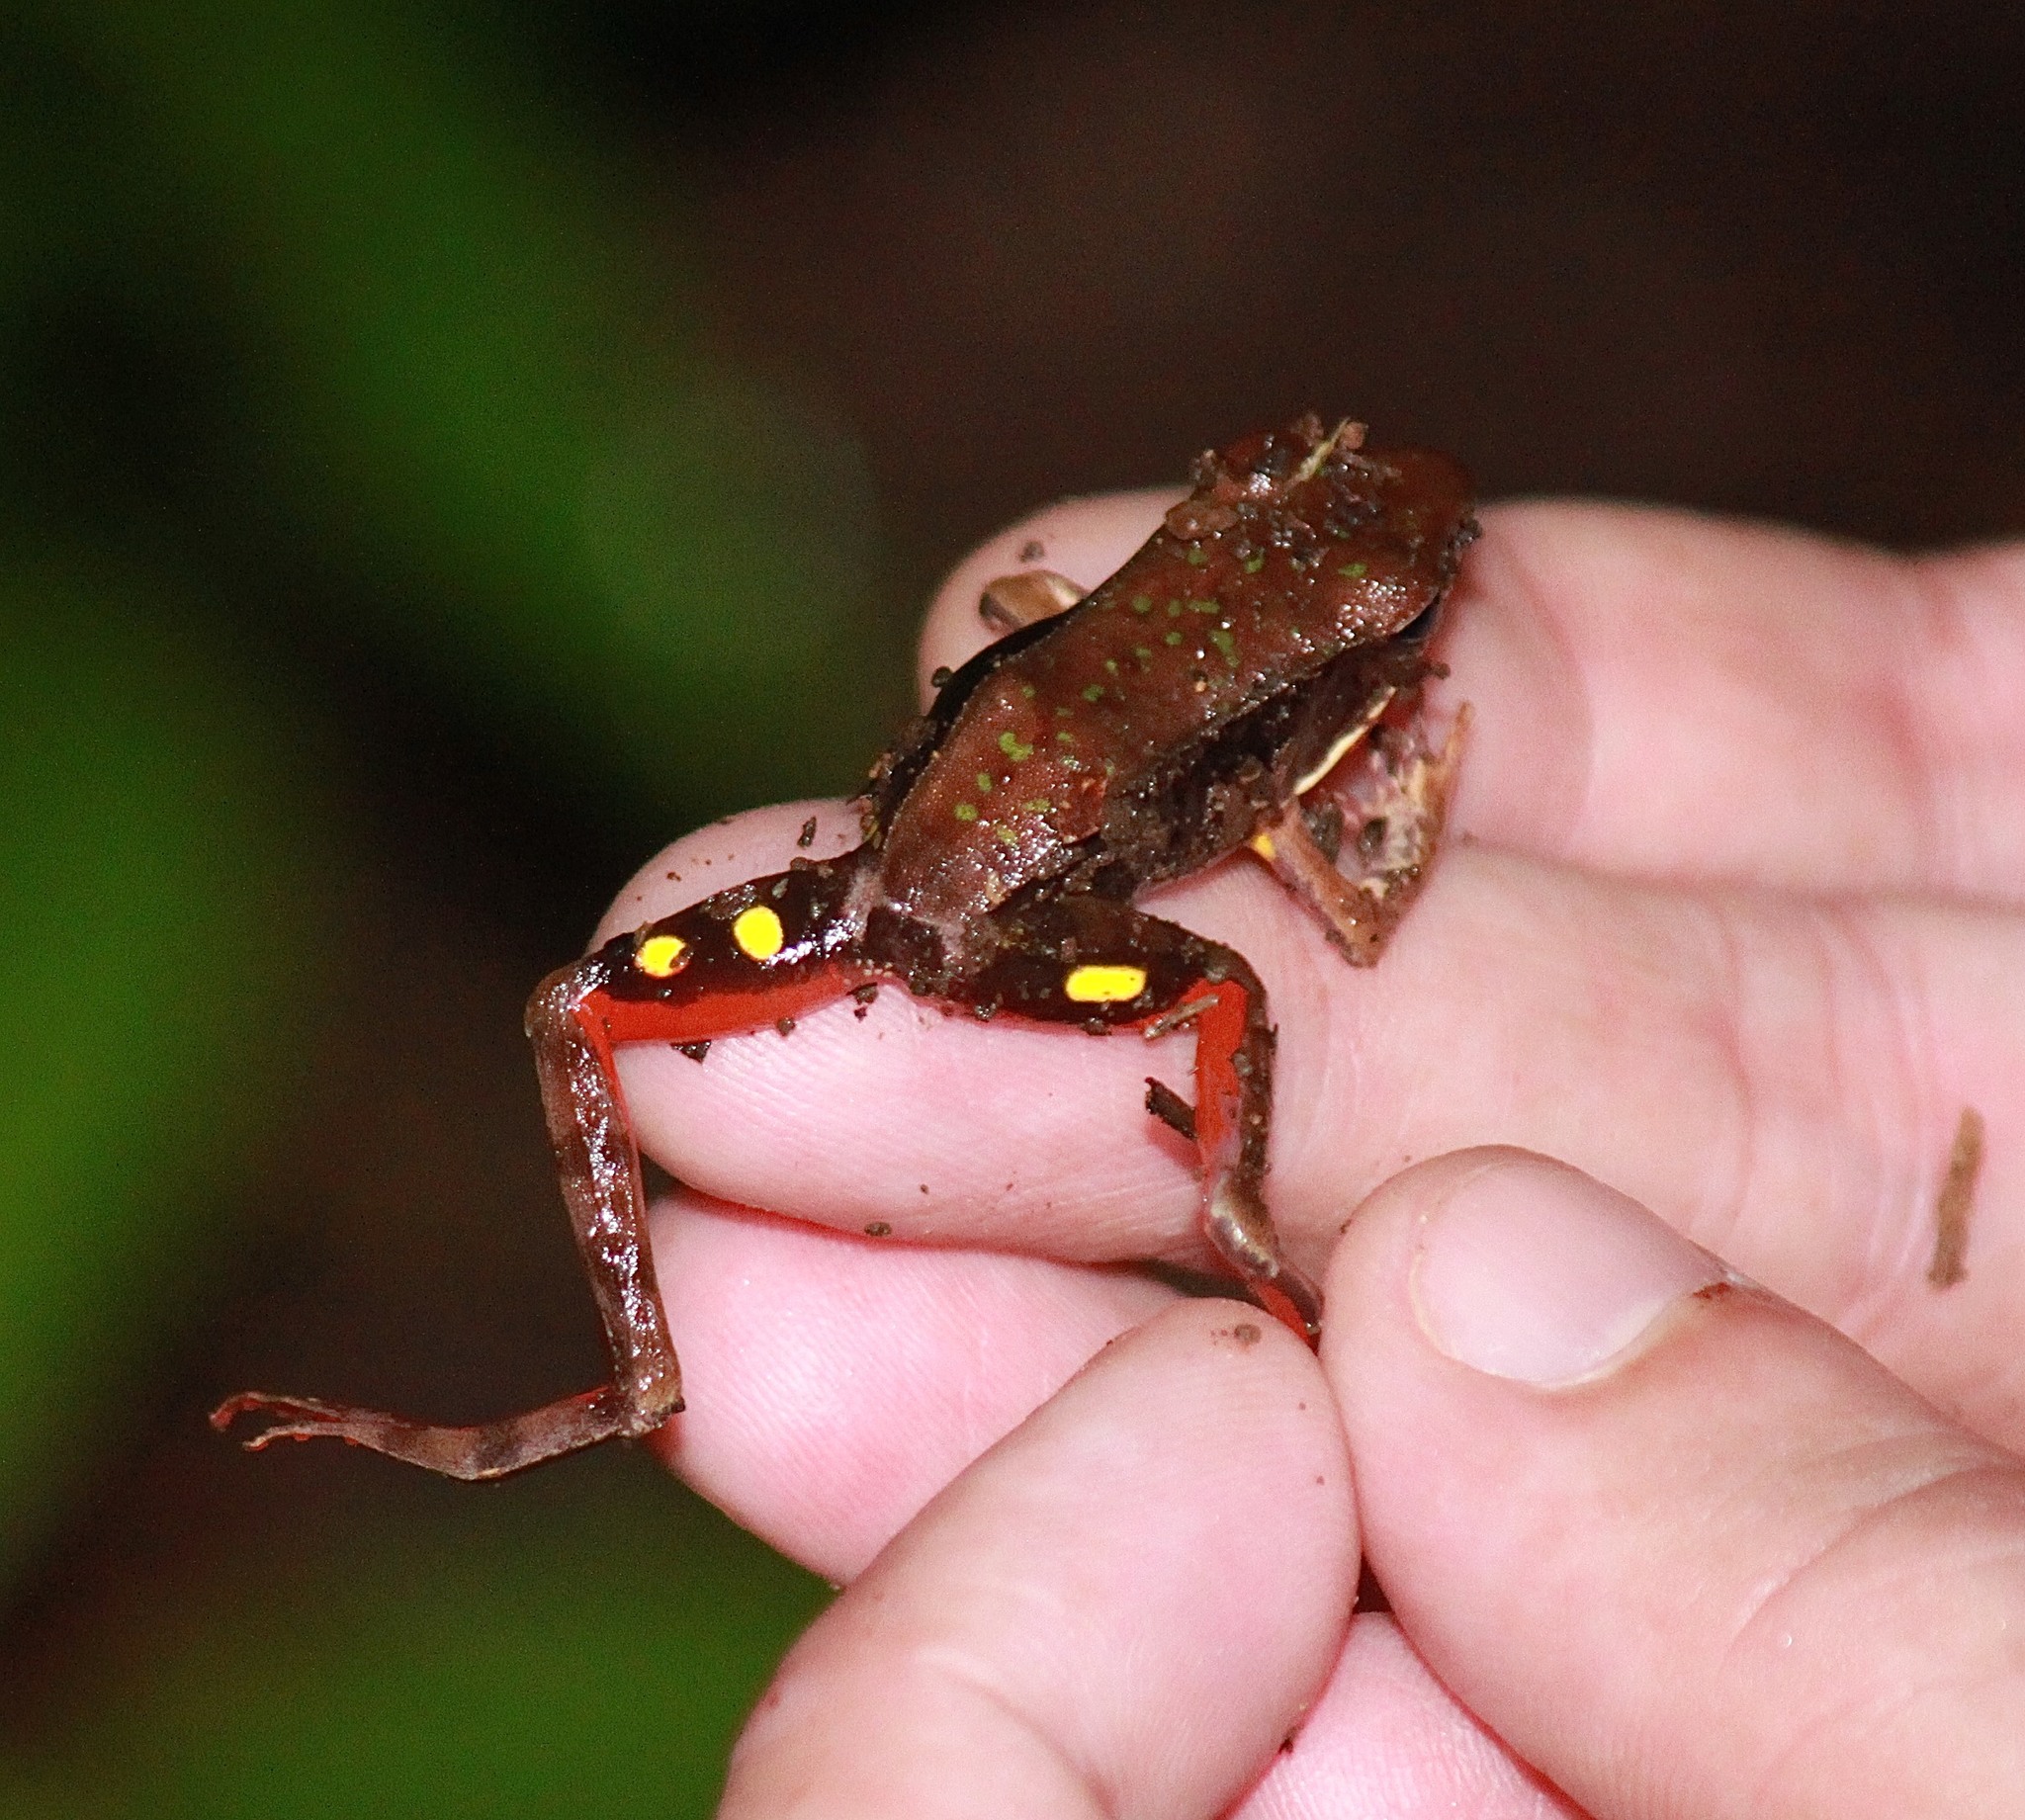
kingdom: Animalia
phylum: Chordata
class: Amphibia
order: Anura
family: Ranidae
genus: Lithobates
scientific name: Lithobates warszewitschii
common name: Warszewitsch's frog
